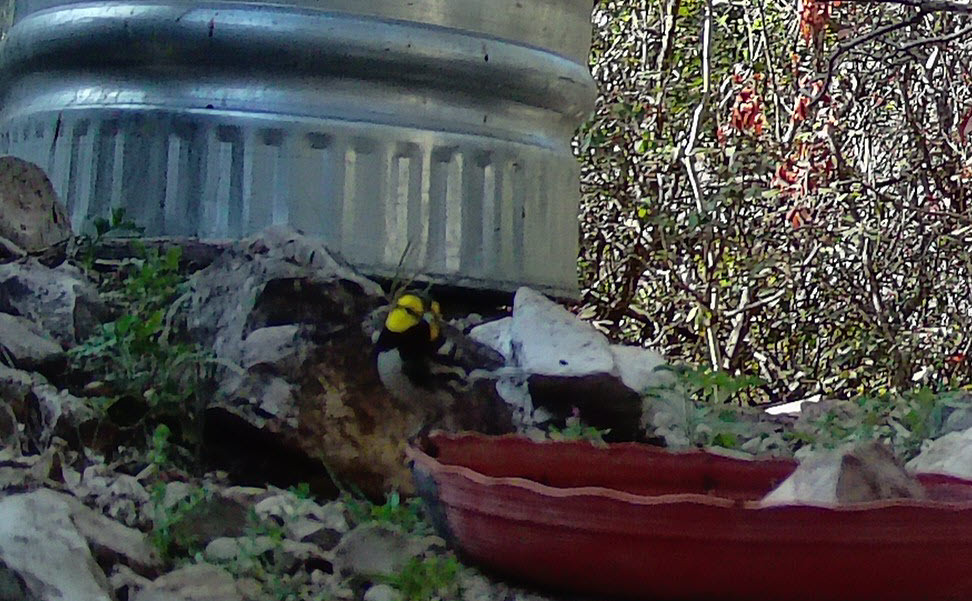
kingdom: Animalia
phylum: Chordata
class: Aves
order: Passeriformes
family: Parulidae
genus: Setophaga
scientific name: Setophaga chrysoparia
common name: Golden-cheeked warbler
